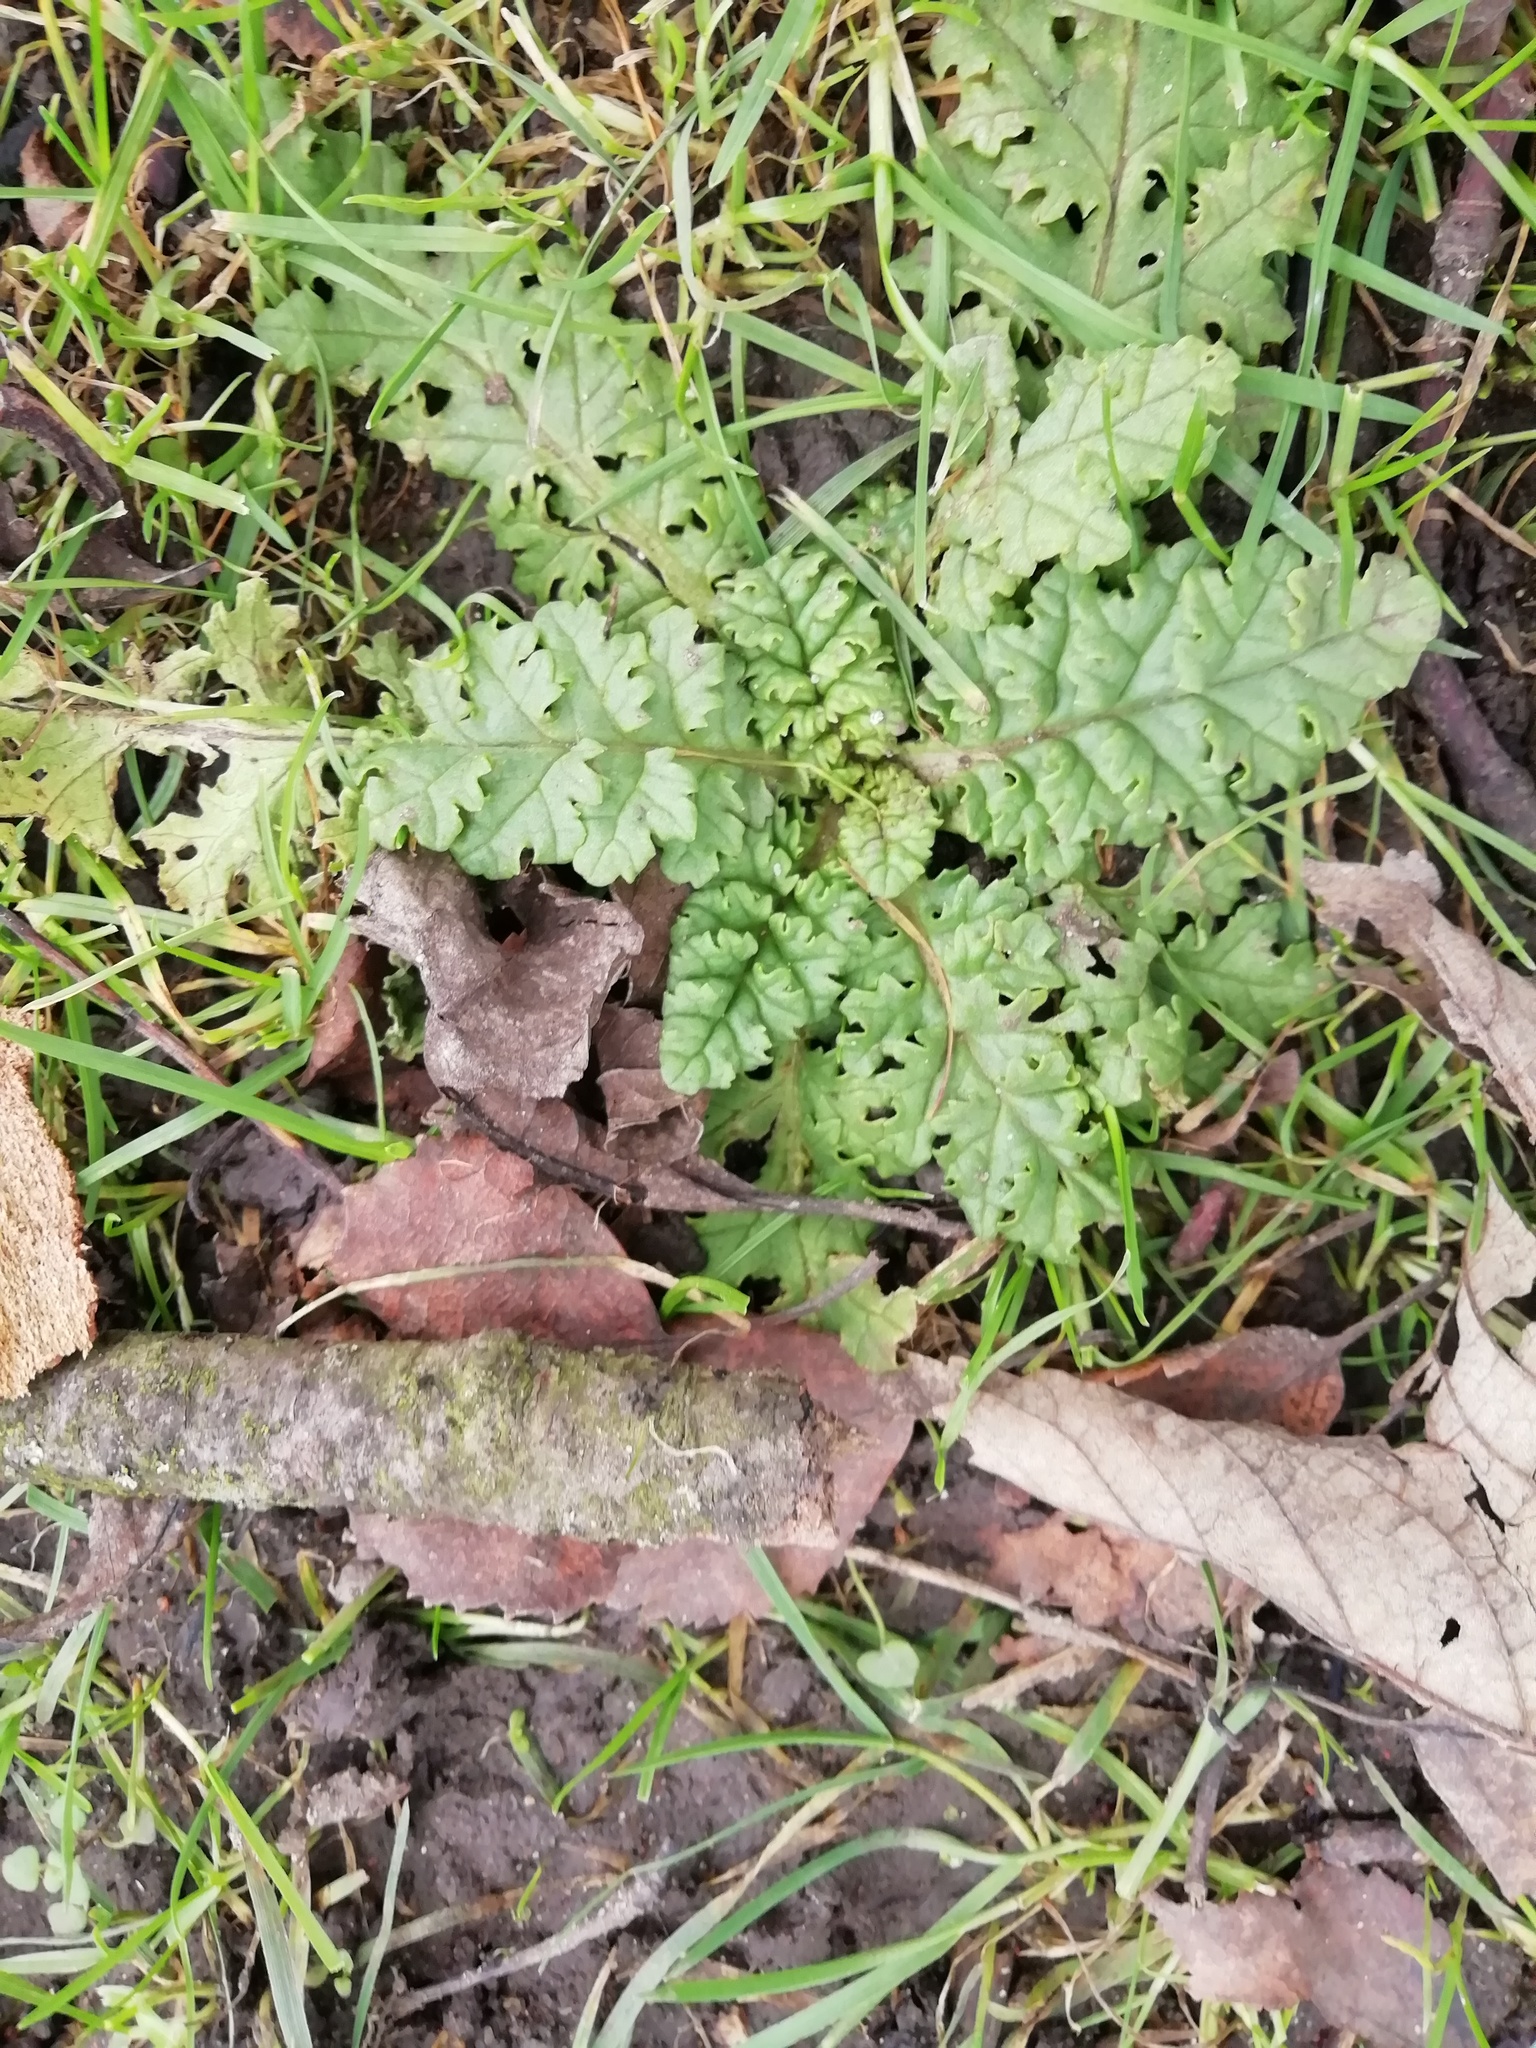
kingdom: Plantae
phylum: Tracheophyta
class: Magnoliopsida
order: Asterales
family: Asteraceae
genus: Jacobaea
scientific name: Jacobaea vulgaris
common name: Stinking willie
